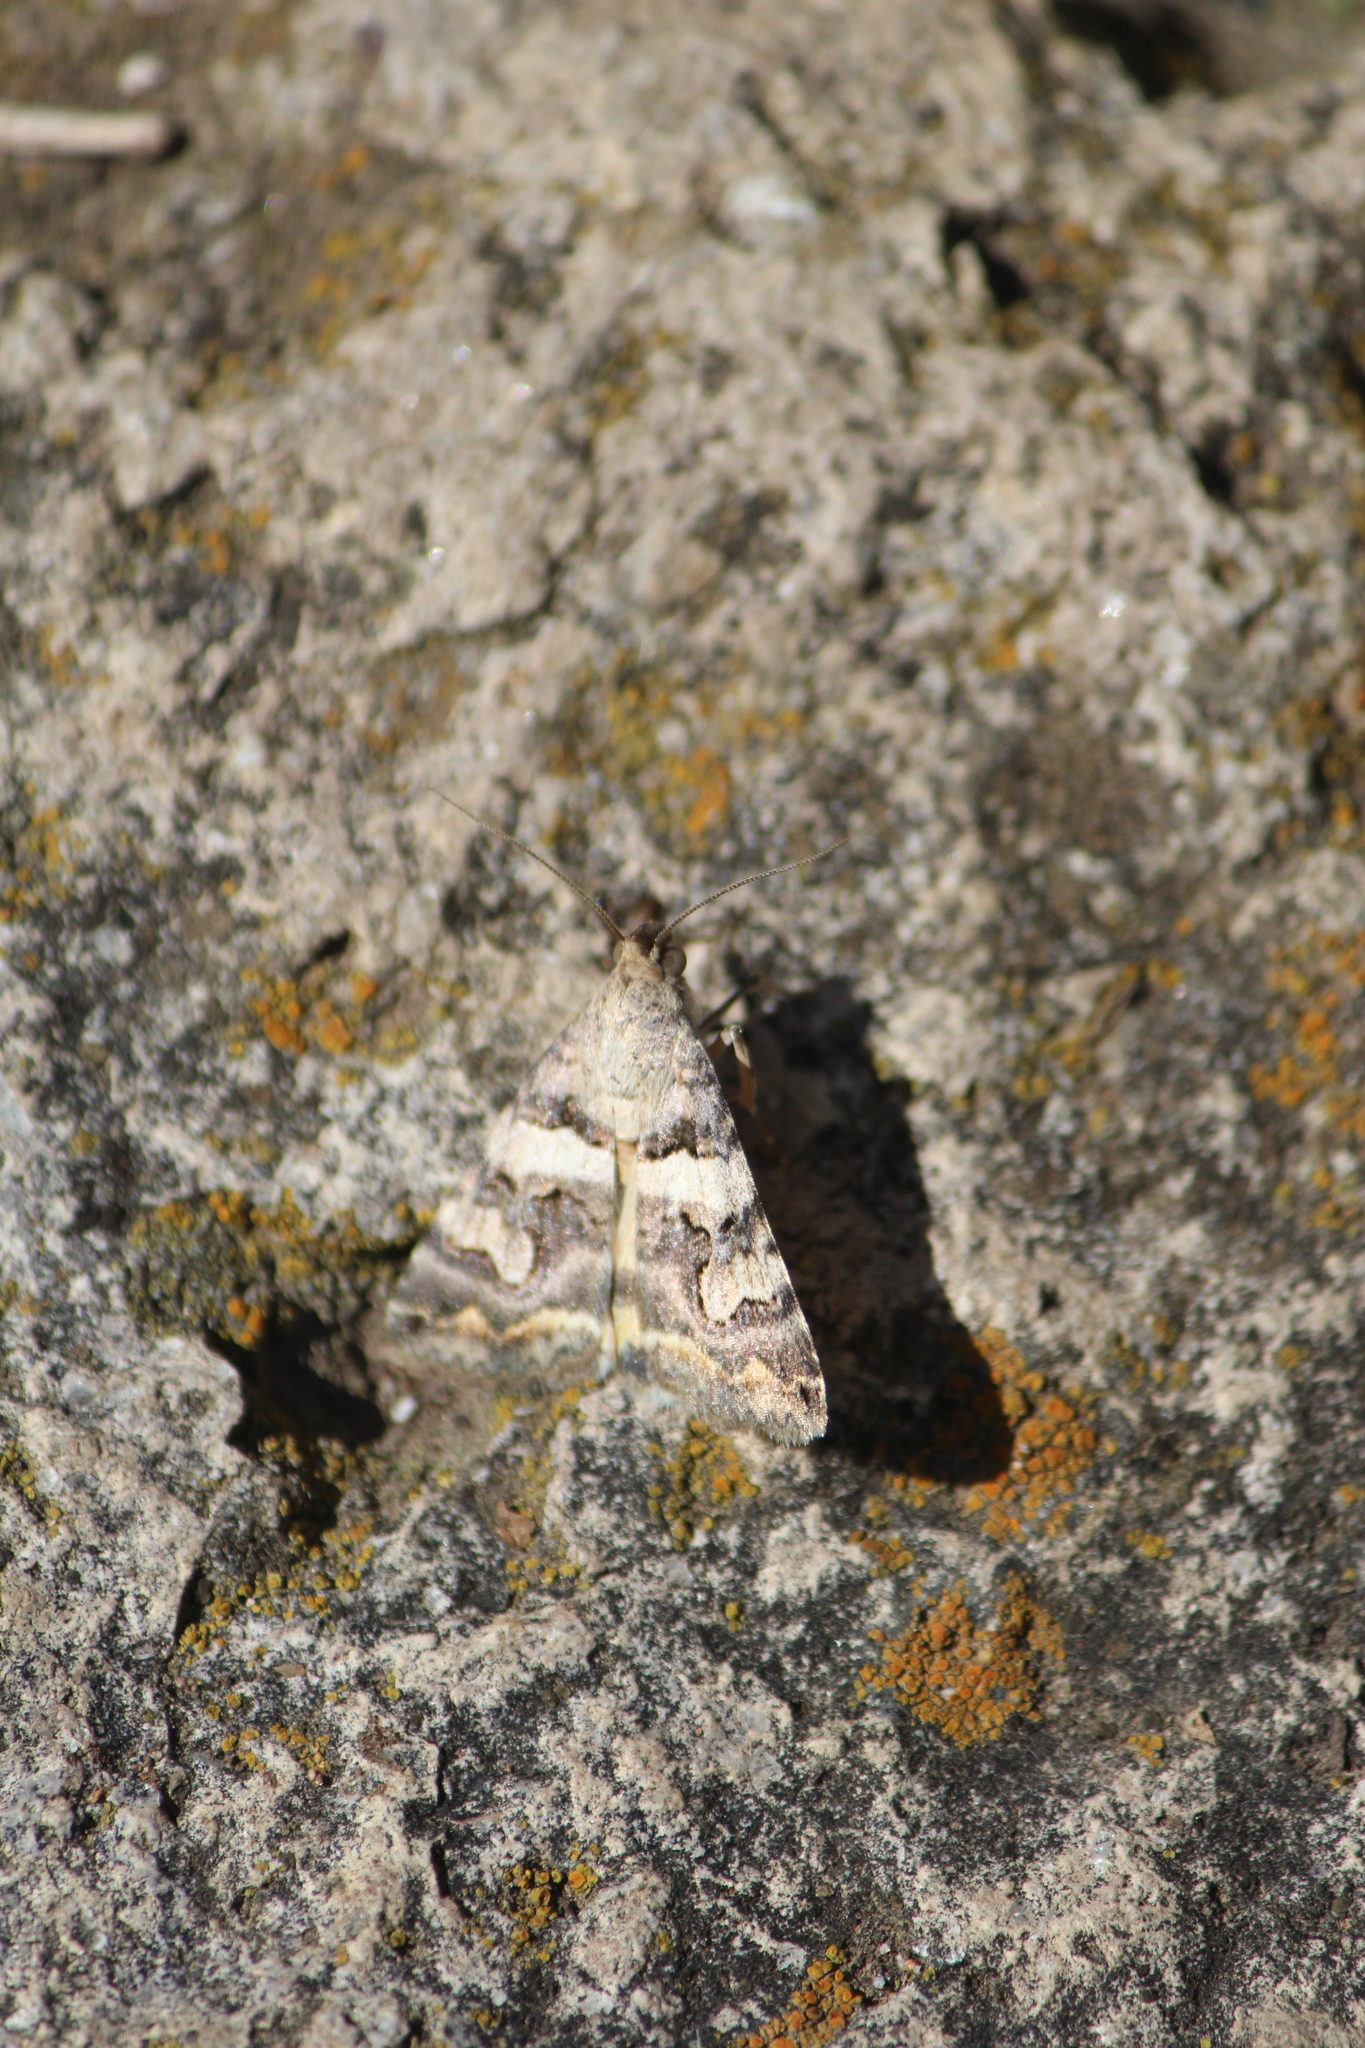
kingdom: Animalia
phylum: Arthropoda
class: Insecta
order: Lepidoptera
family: Erebidae
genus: Bulia
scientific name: Bulia deducta
